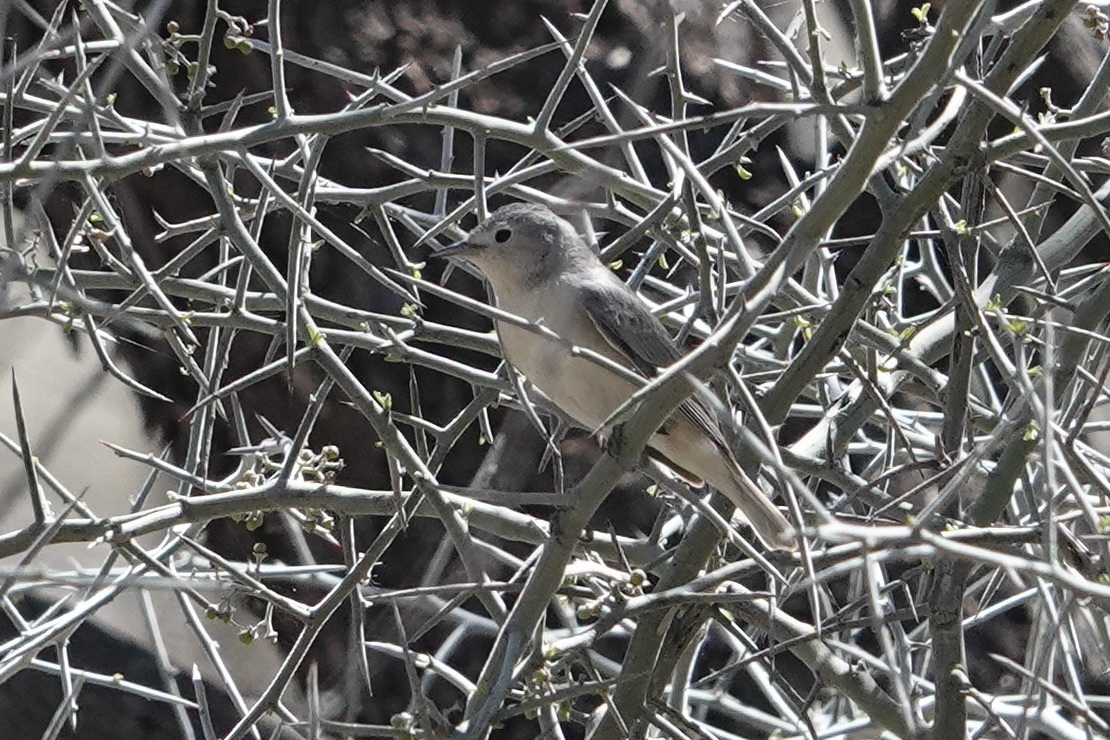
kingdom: Animalia
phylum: Chordata
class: Aves
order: Passeriformes
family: Parulidae
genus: Leiothlypis
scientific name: Leiothlypis luciae
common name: Lucy's warbler
